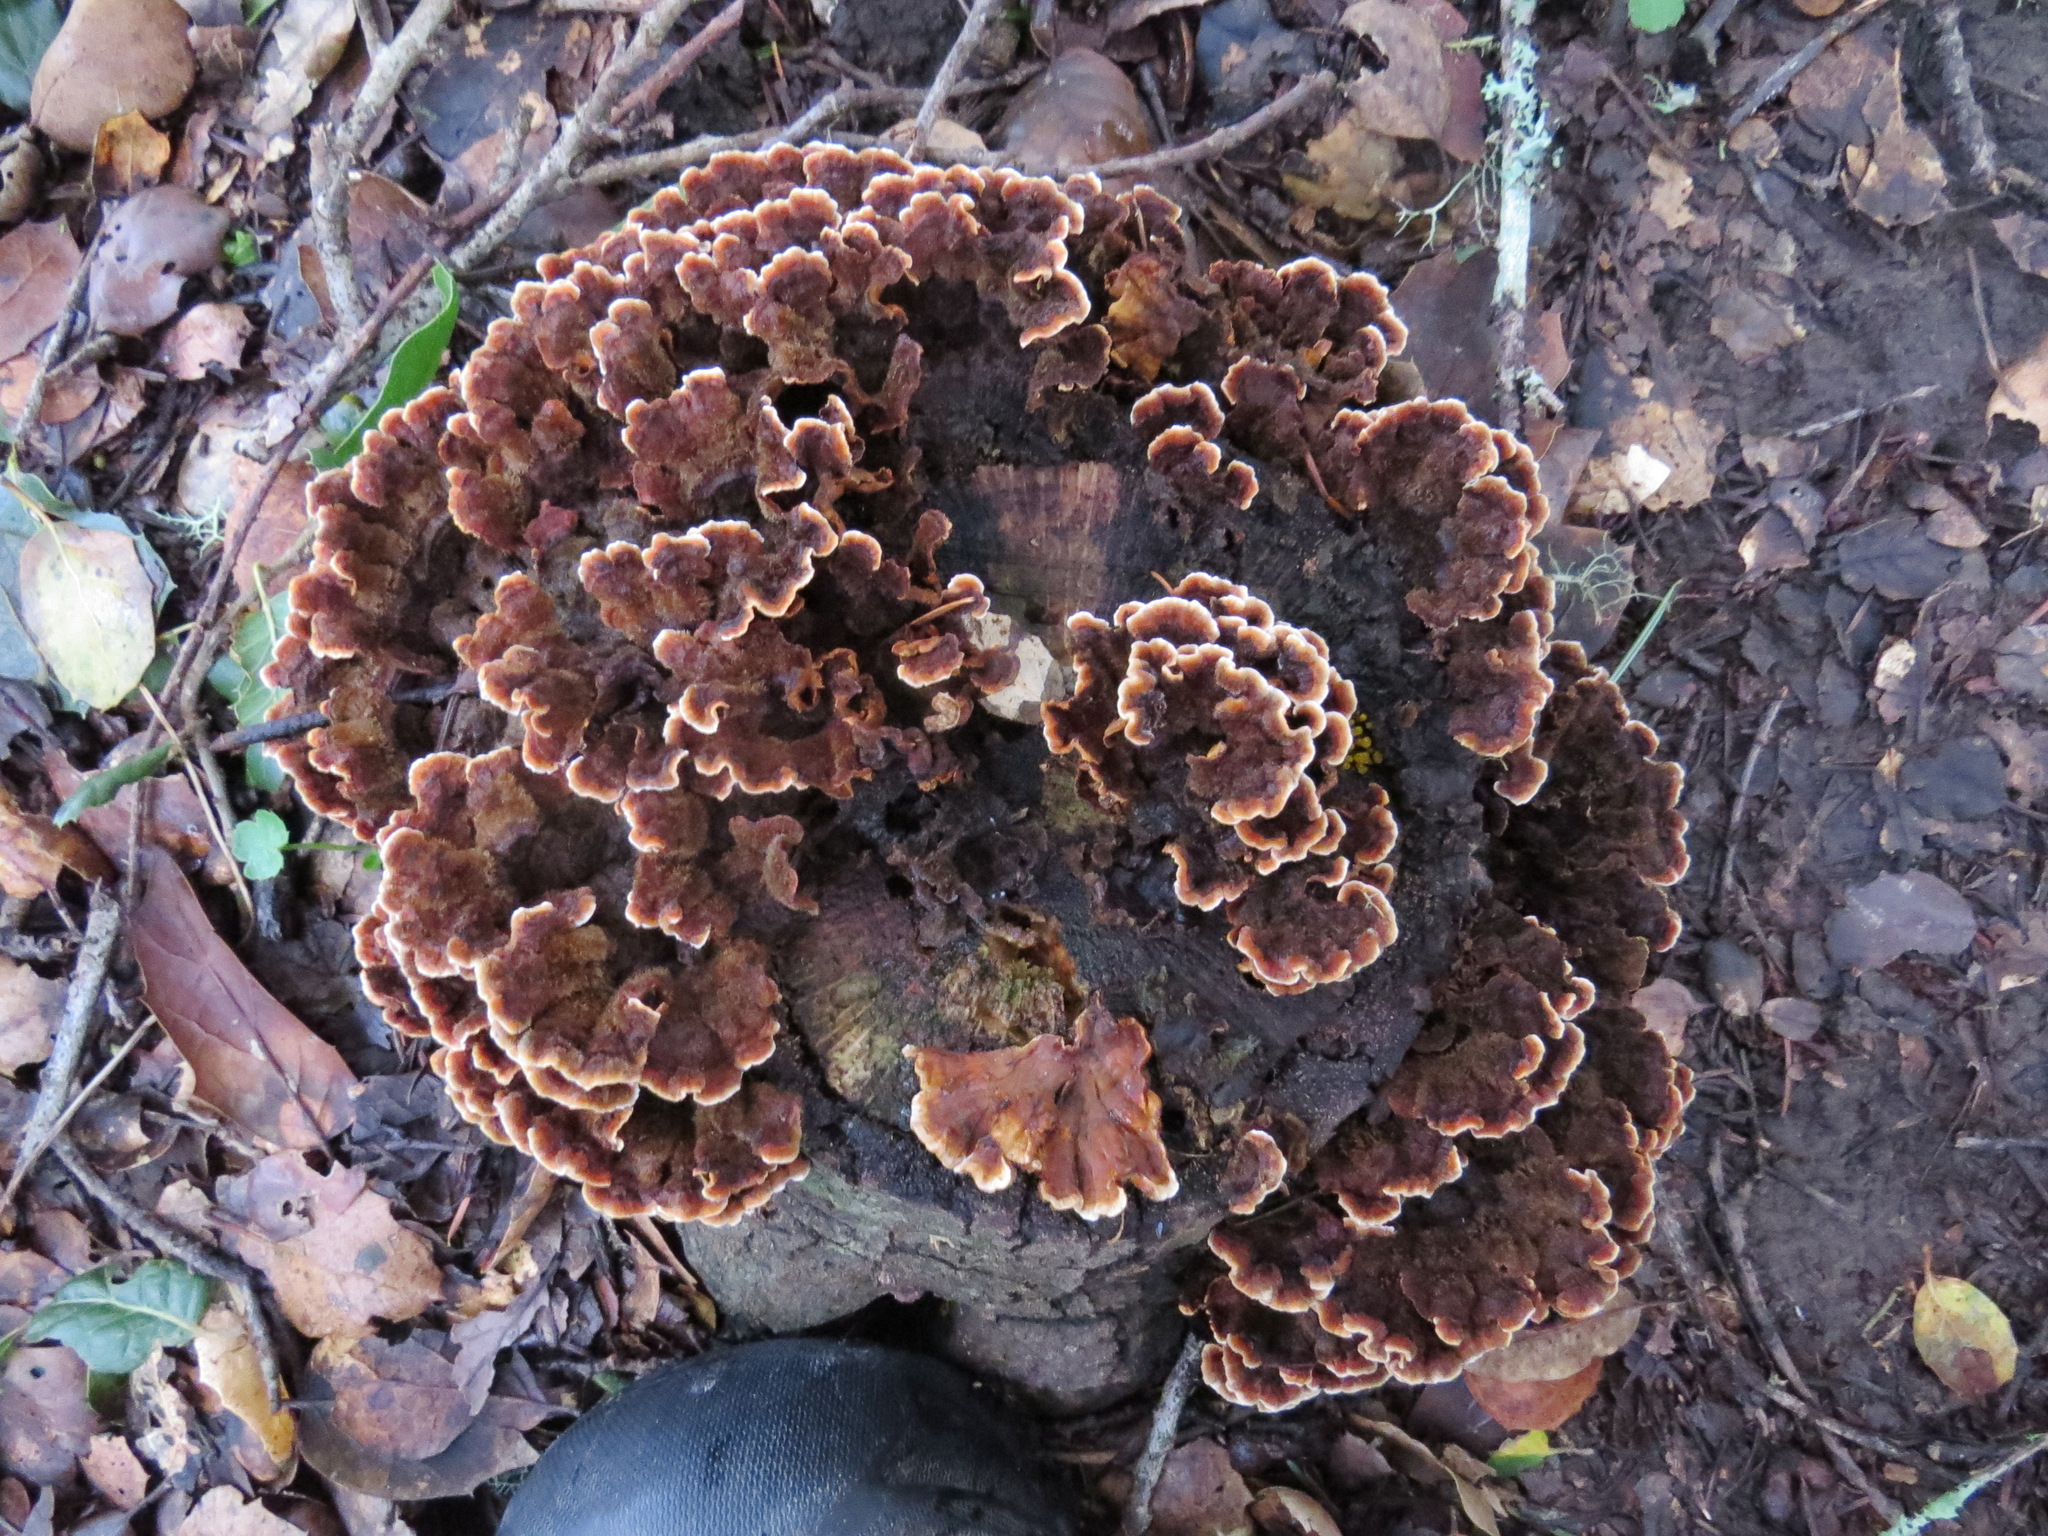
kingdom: Fungi
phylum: Basidiomycota
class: Agaricomycetes
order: Russulales
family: Stereaceae
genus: Stereum
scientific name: Stereum hirsutum
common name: Hairy curtain crust
